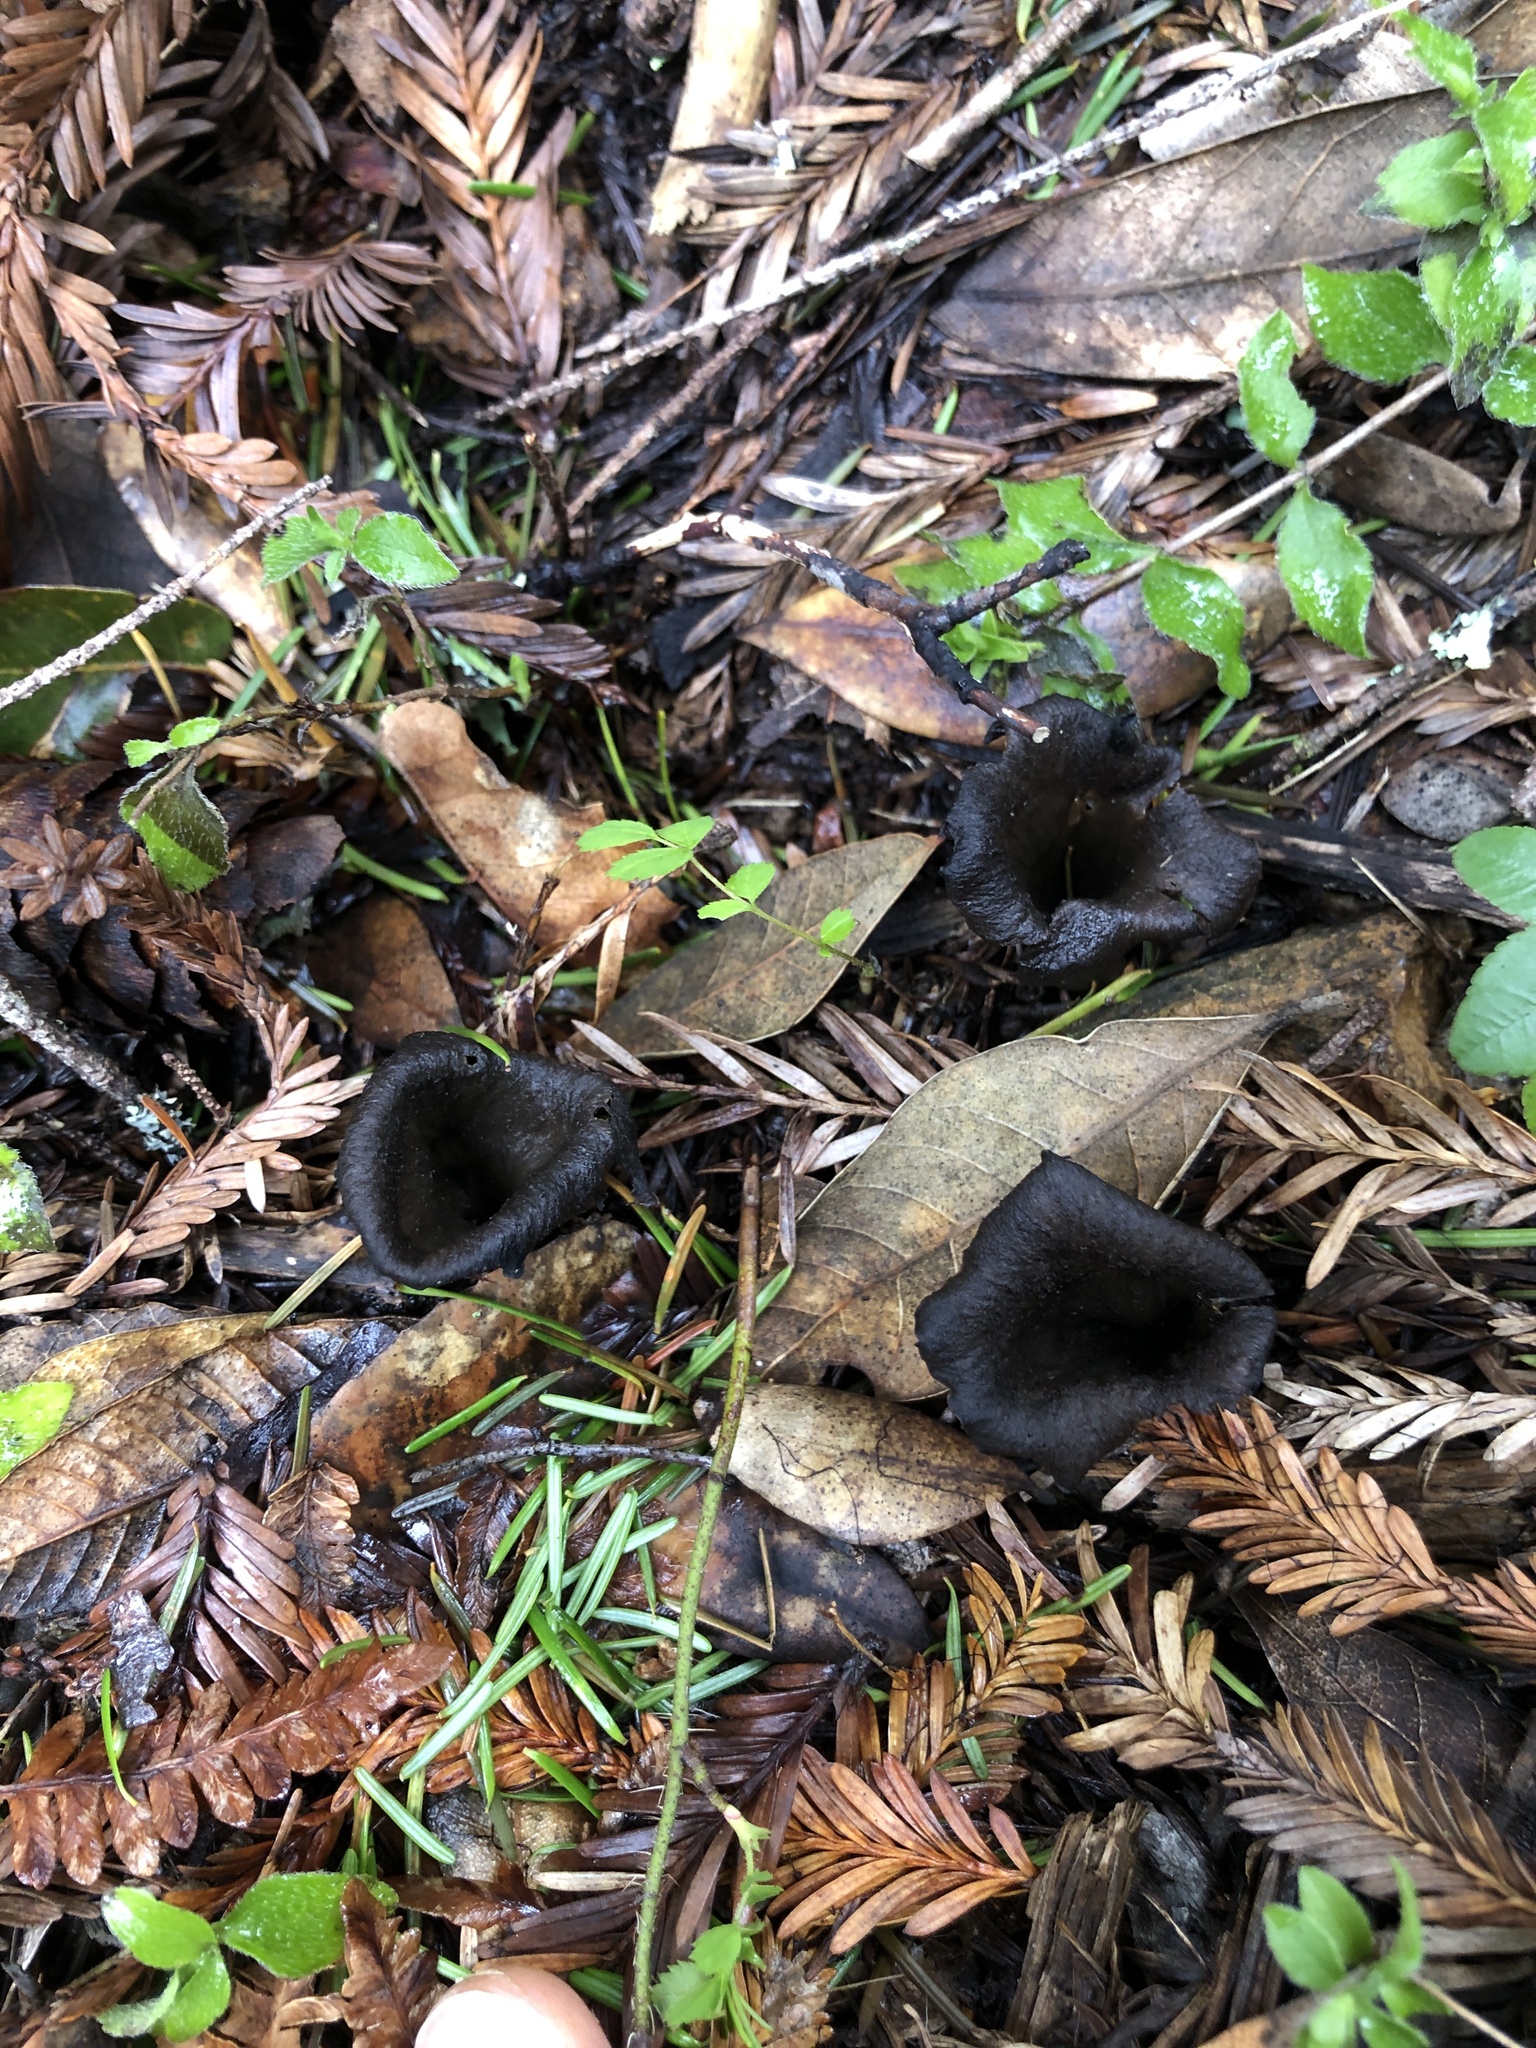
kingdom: Fungi
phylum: Basidiomycota
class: Agaricomycetes
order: Cantharellales
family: Hydnaceae
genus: Craterellus
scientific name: Craterellus calicornucopioides
